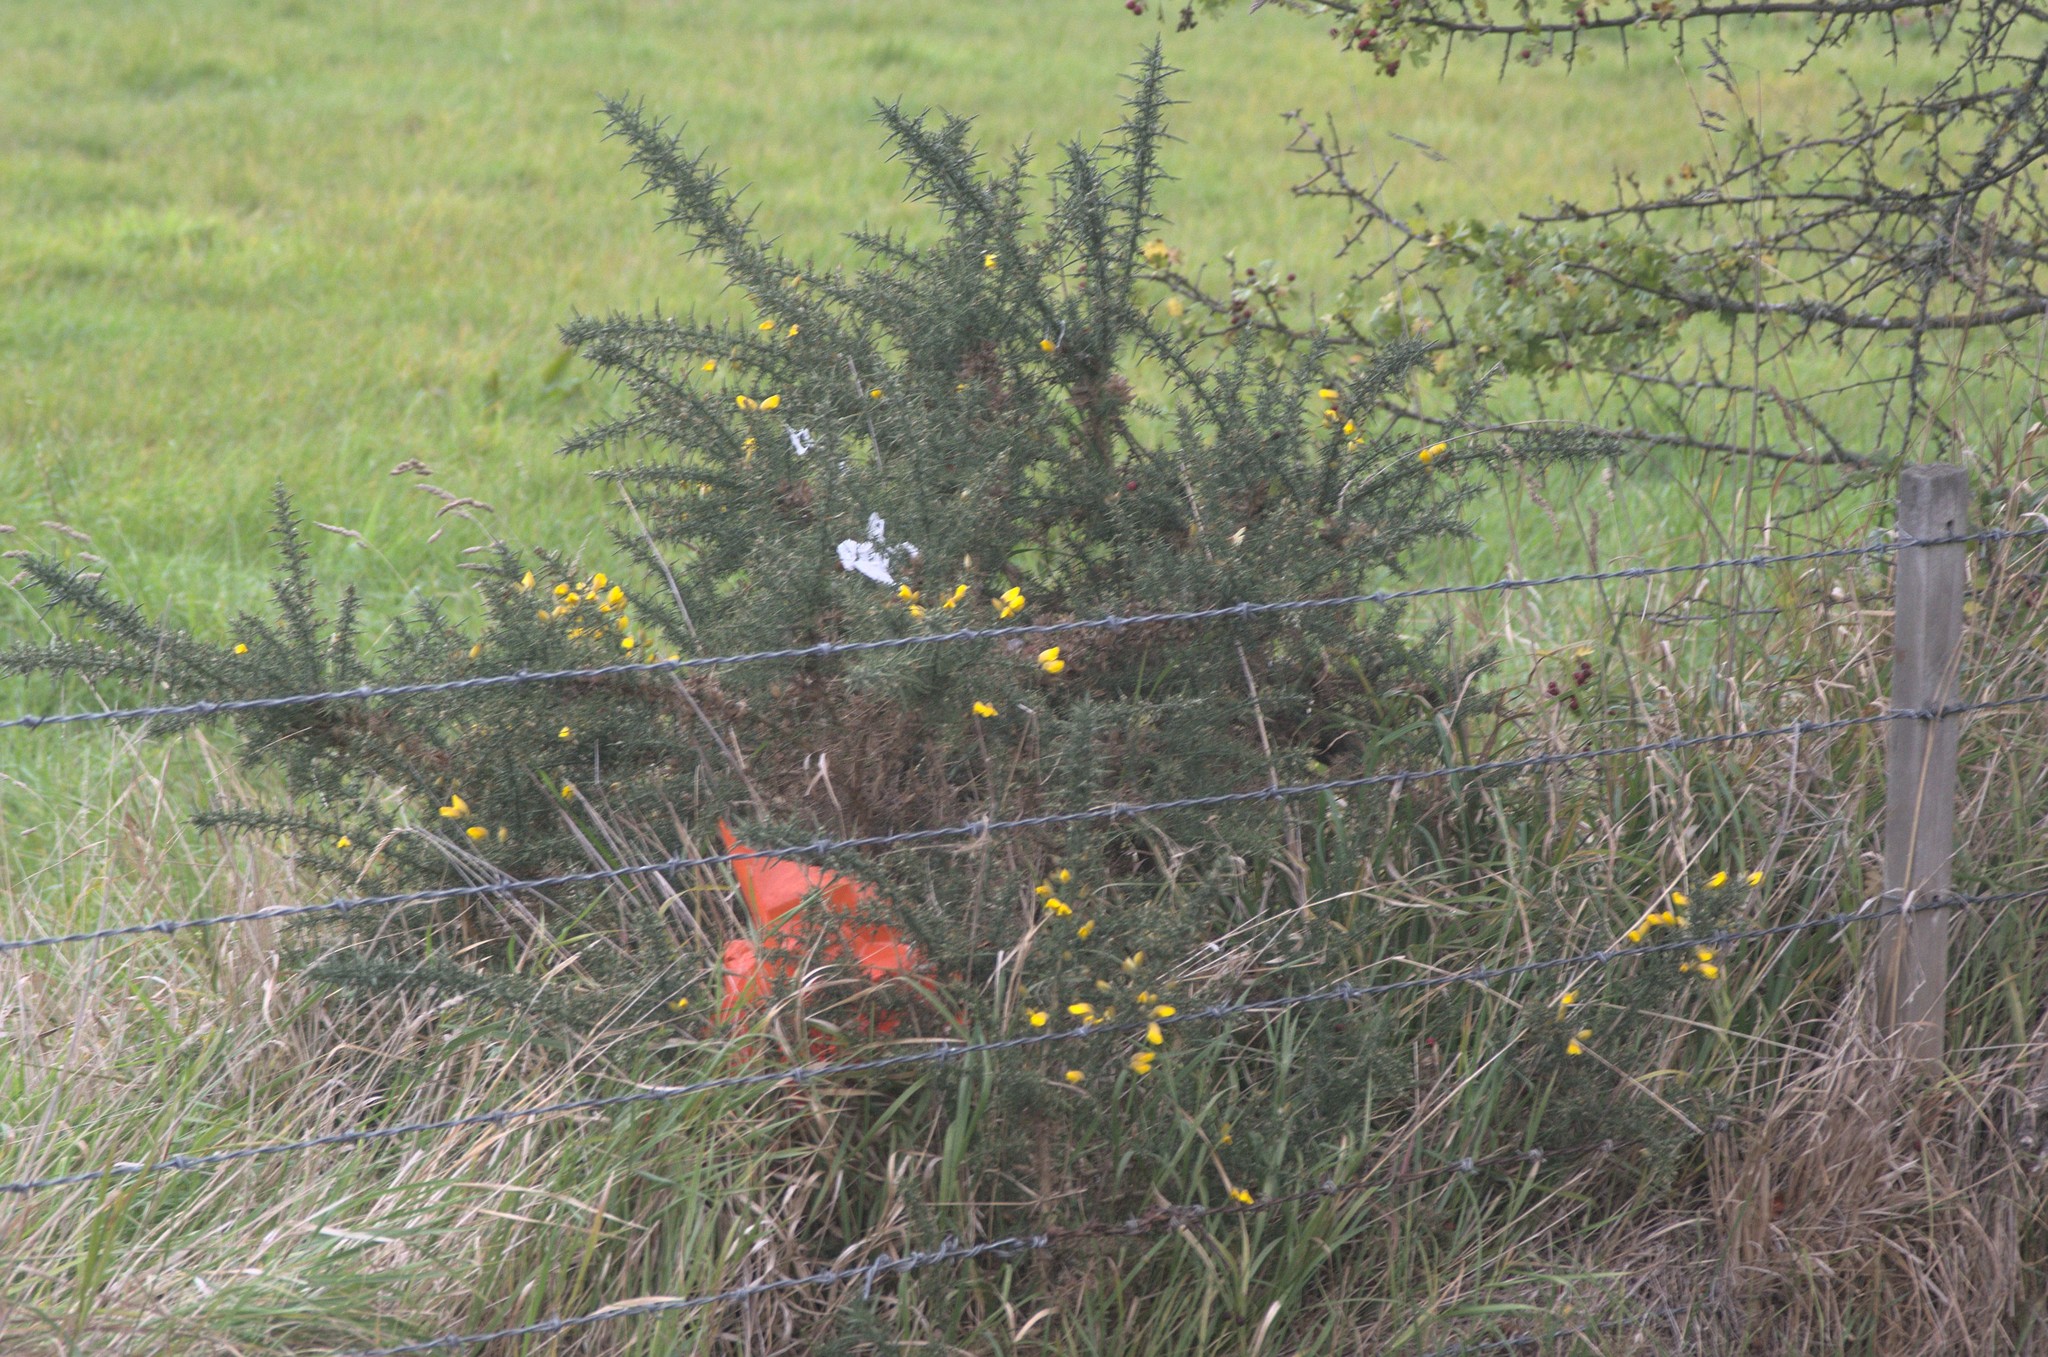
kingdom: Plantae
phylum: Tracheophyta
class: Magnoliopsida
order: Fabales
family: Fabaceae
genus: Ulex
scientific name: Ulex europaeus
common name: Common gorse
